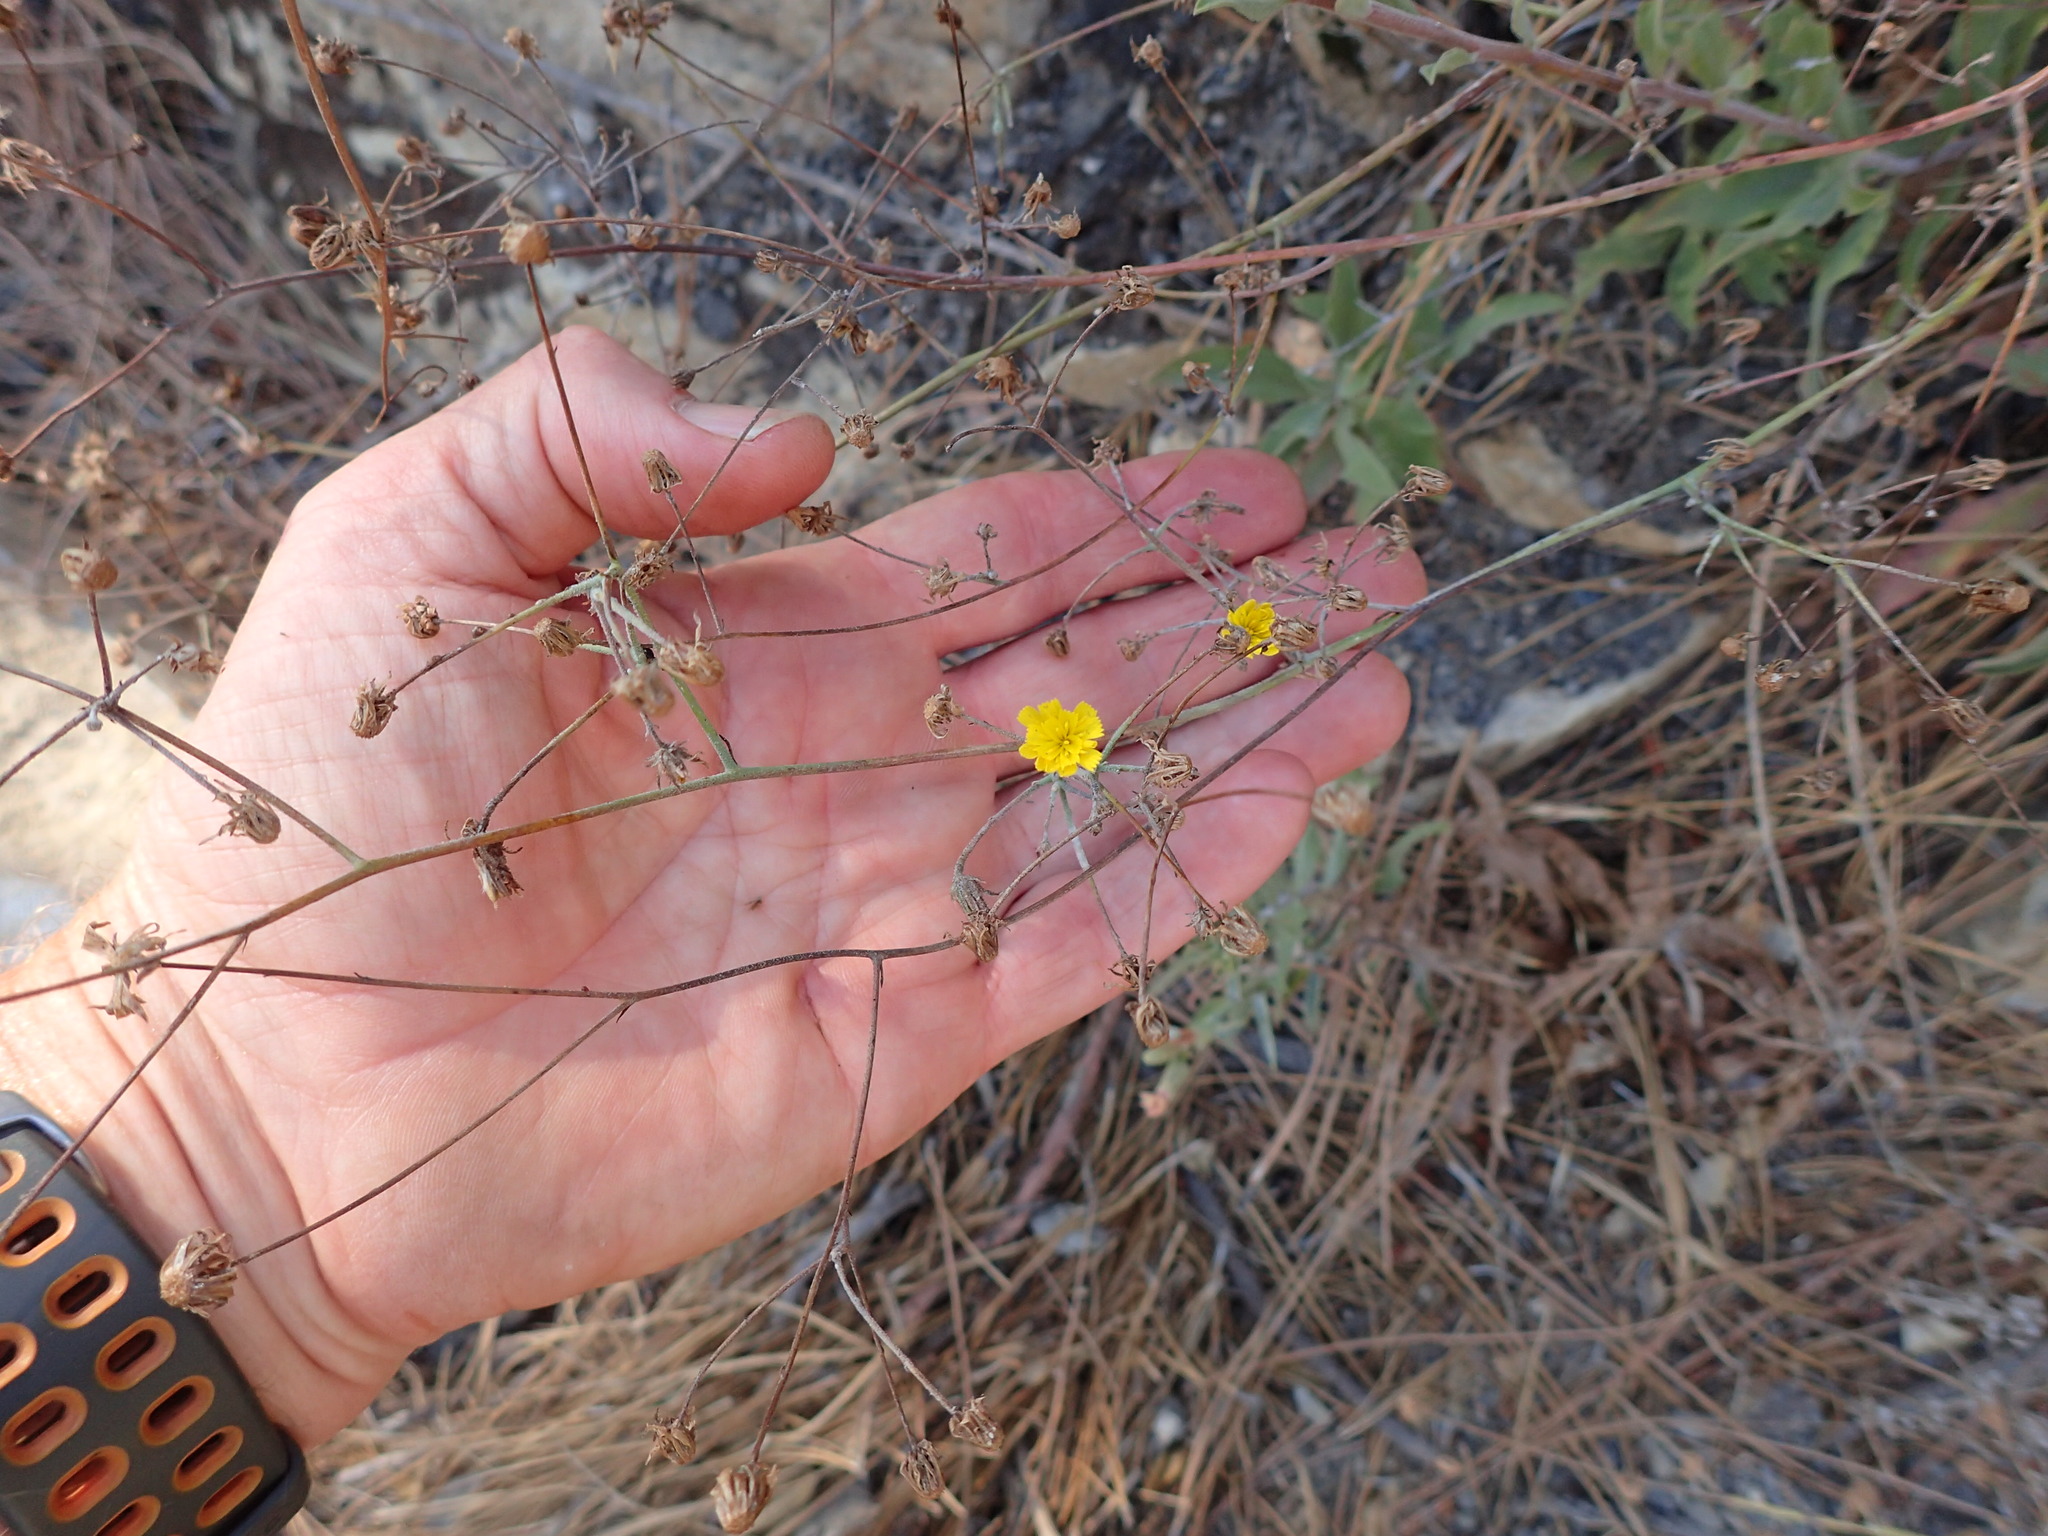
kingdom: Plantae
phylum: Tracheophyta
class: Magnoliopsida
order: Asterales
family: Asteraceae
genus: Hieracium
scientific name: Hieracium argutum
